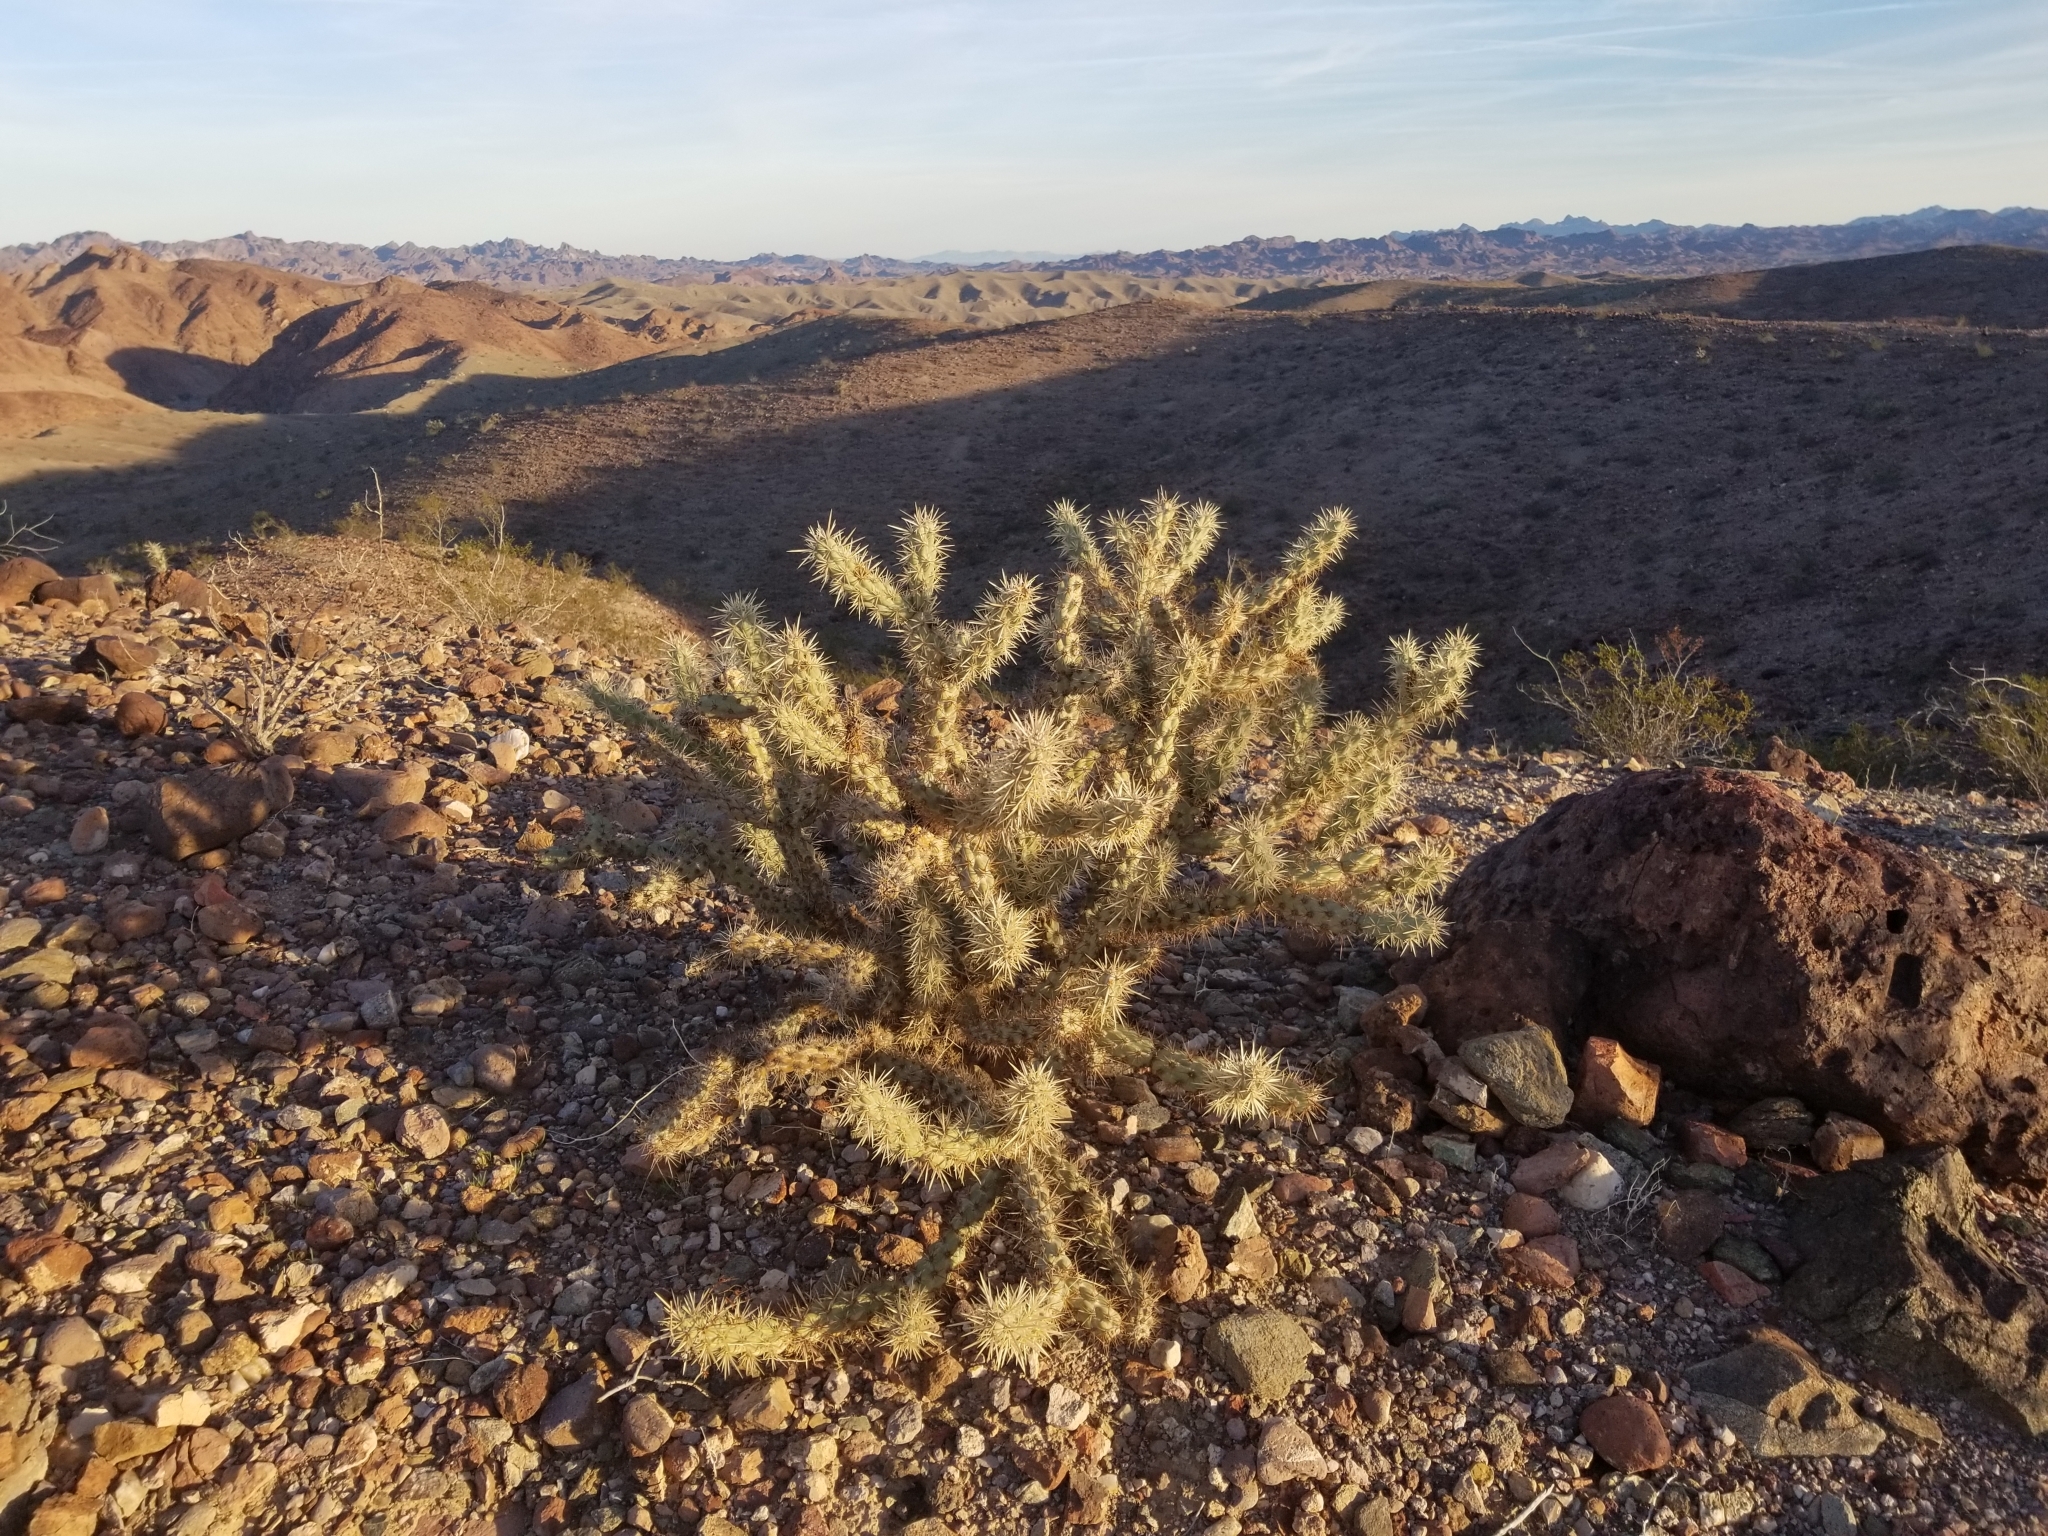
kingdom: Plantae
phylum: Tracheophyta
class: Magnoliopsida
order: Caryophyllales
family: Cactaceae
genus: Cylindropuntia
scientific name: Cylindropuntia acanthocarpa
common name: Buckhorn cholla
